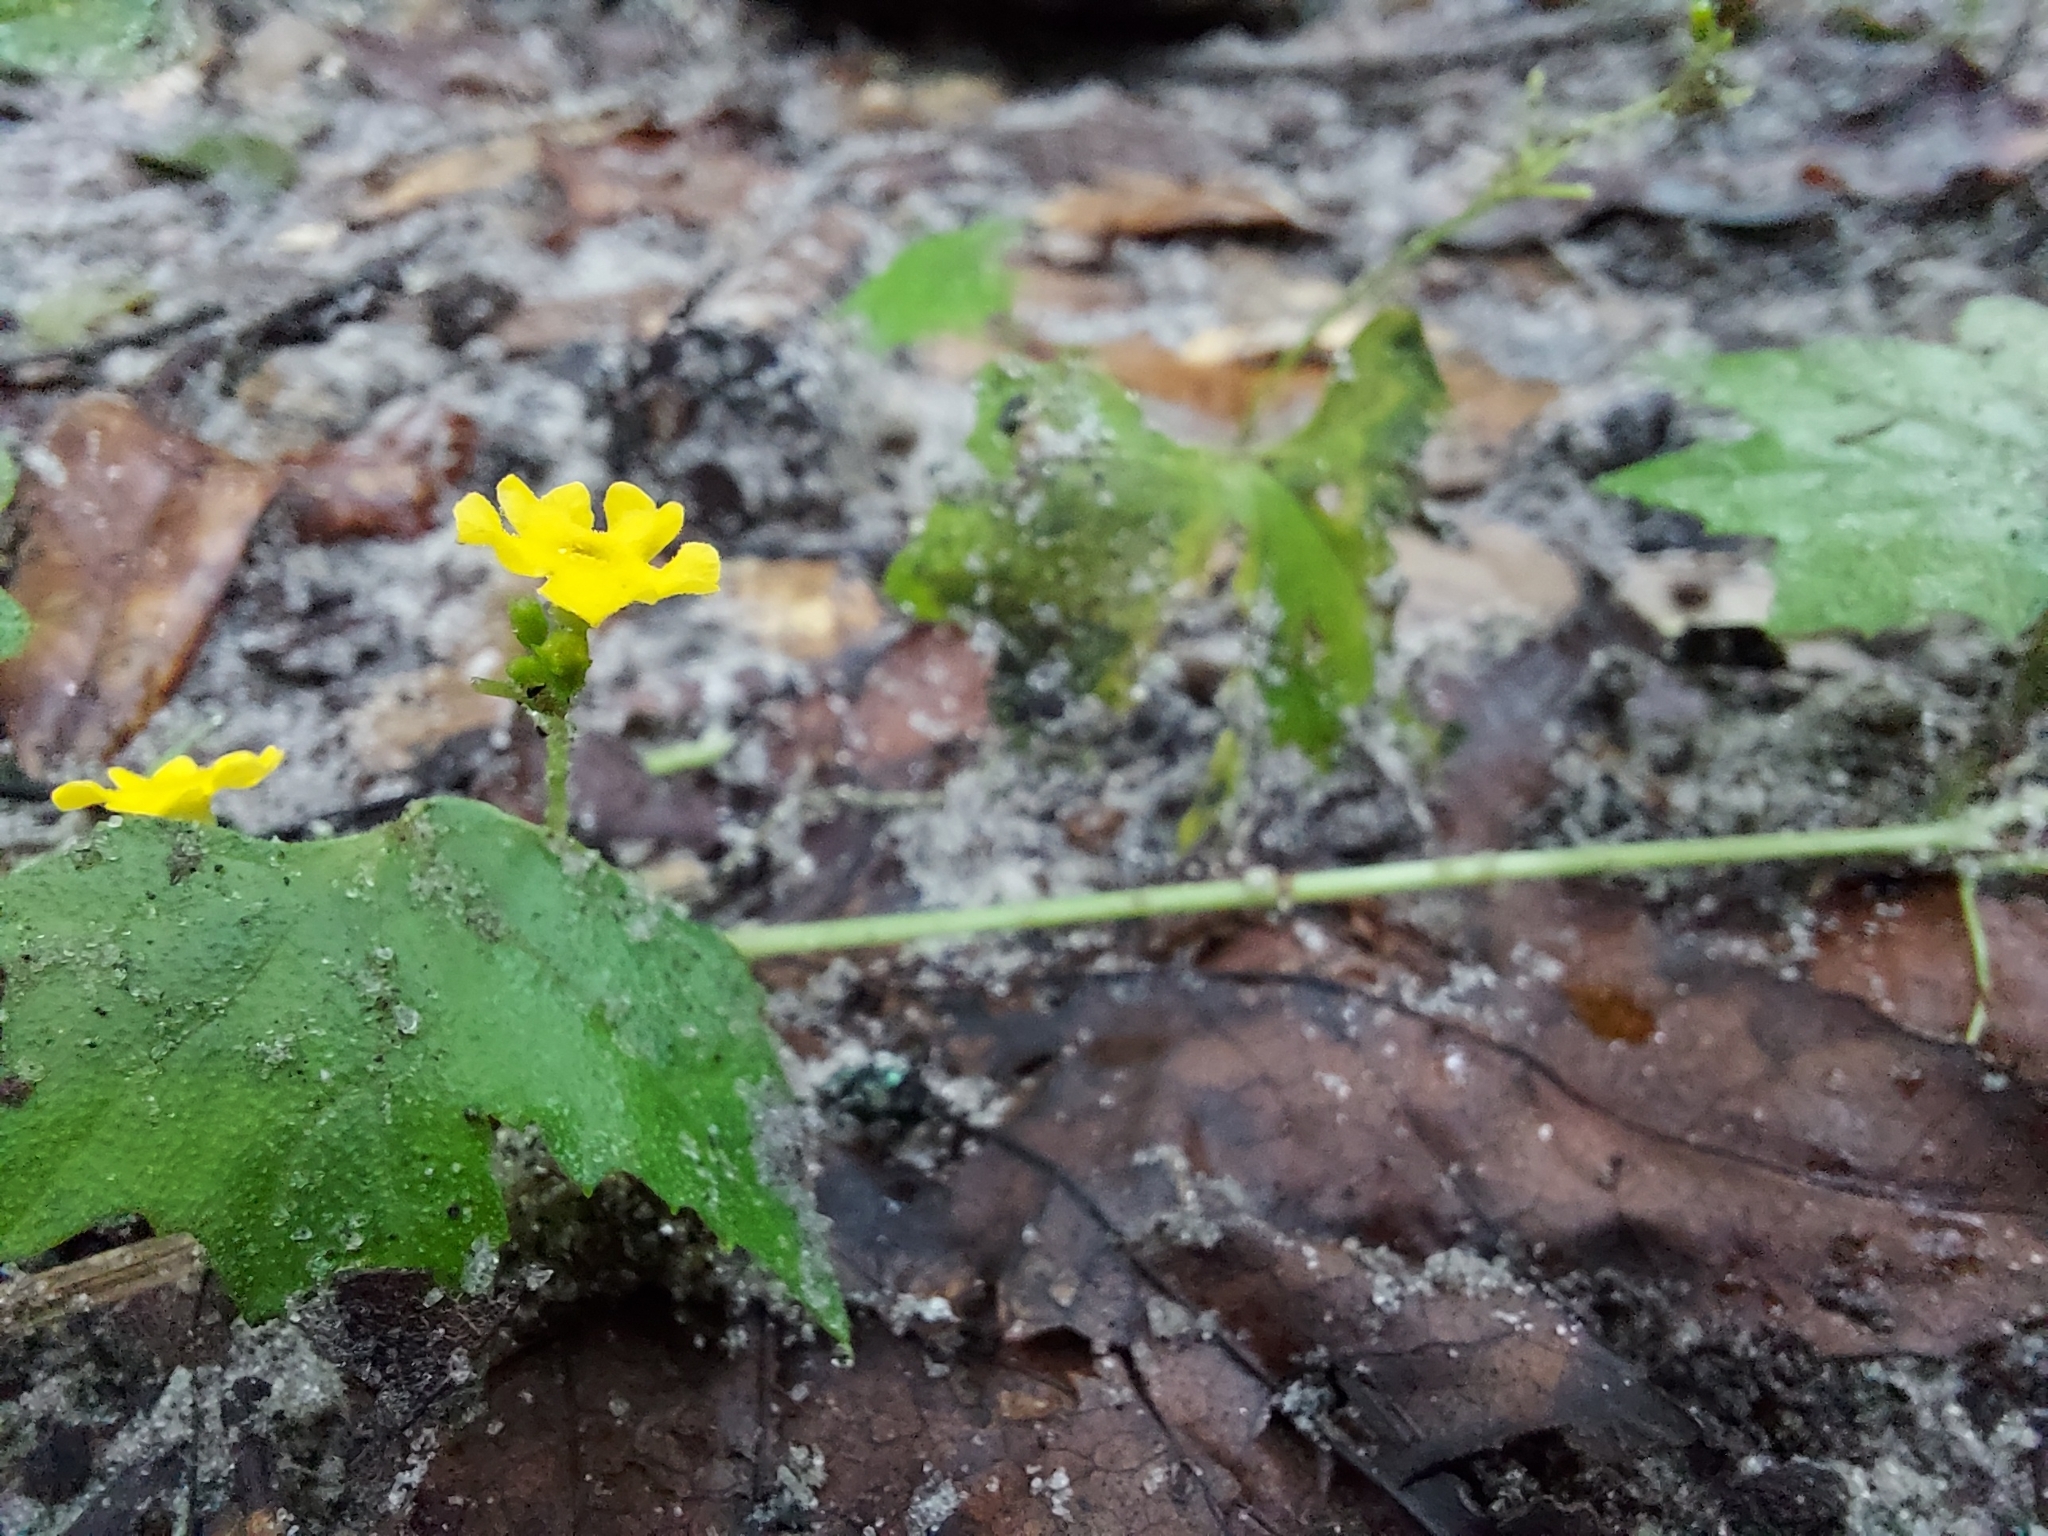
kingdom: Plantae
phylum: Tracheophyta
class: Magnoliopsida
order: Cucurbitales
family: Cucurbitaceae
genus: Melothria
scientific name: Melothria pendula
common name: Creeping-cucumber
